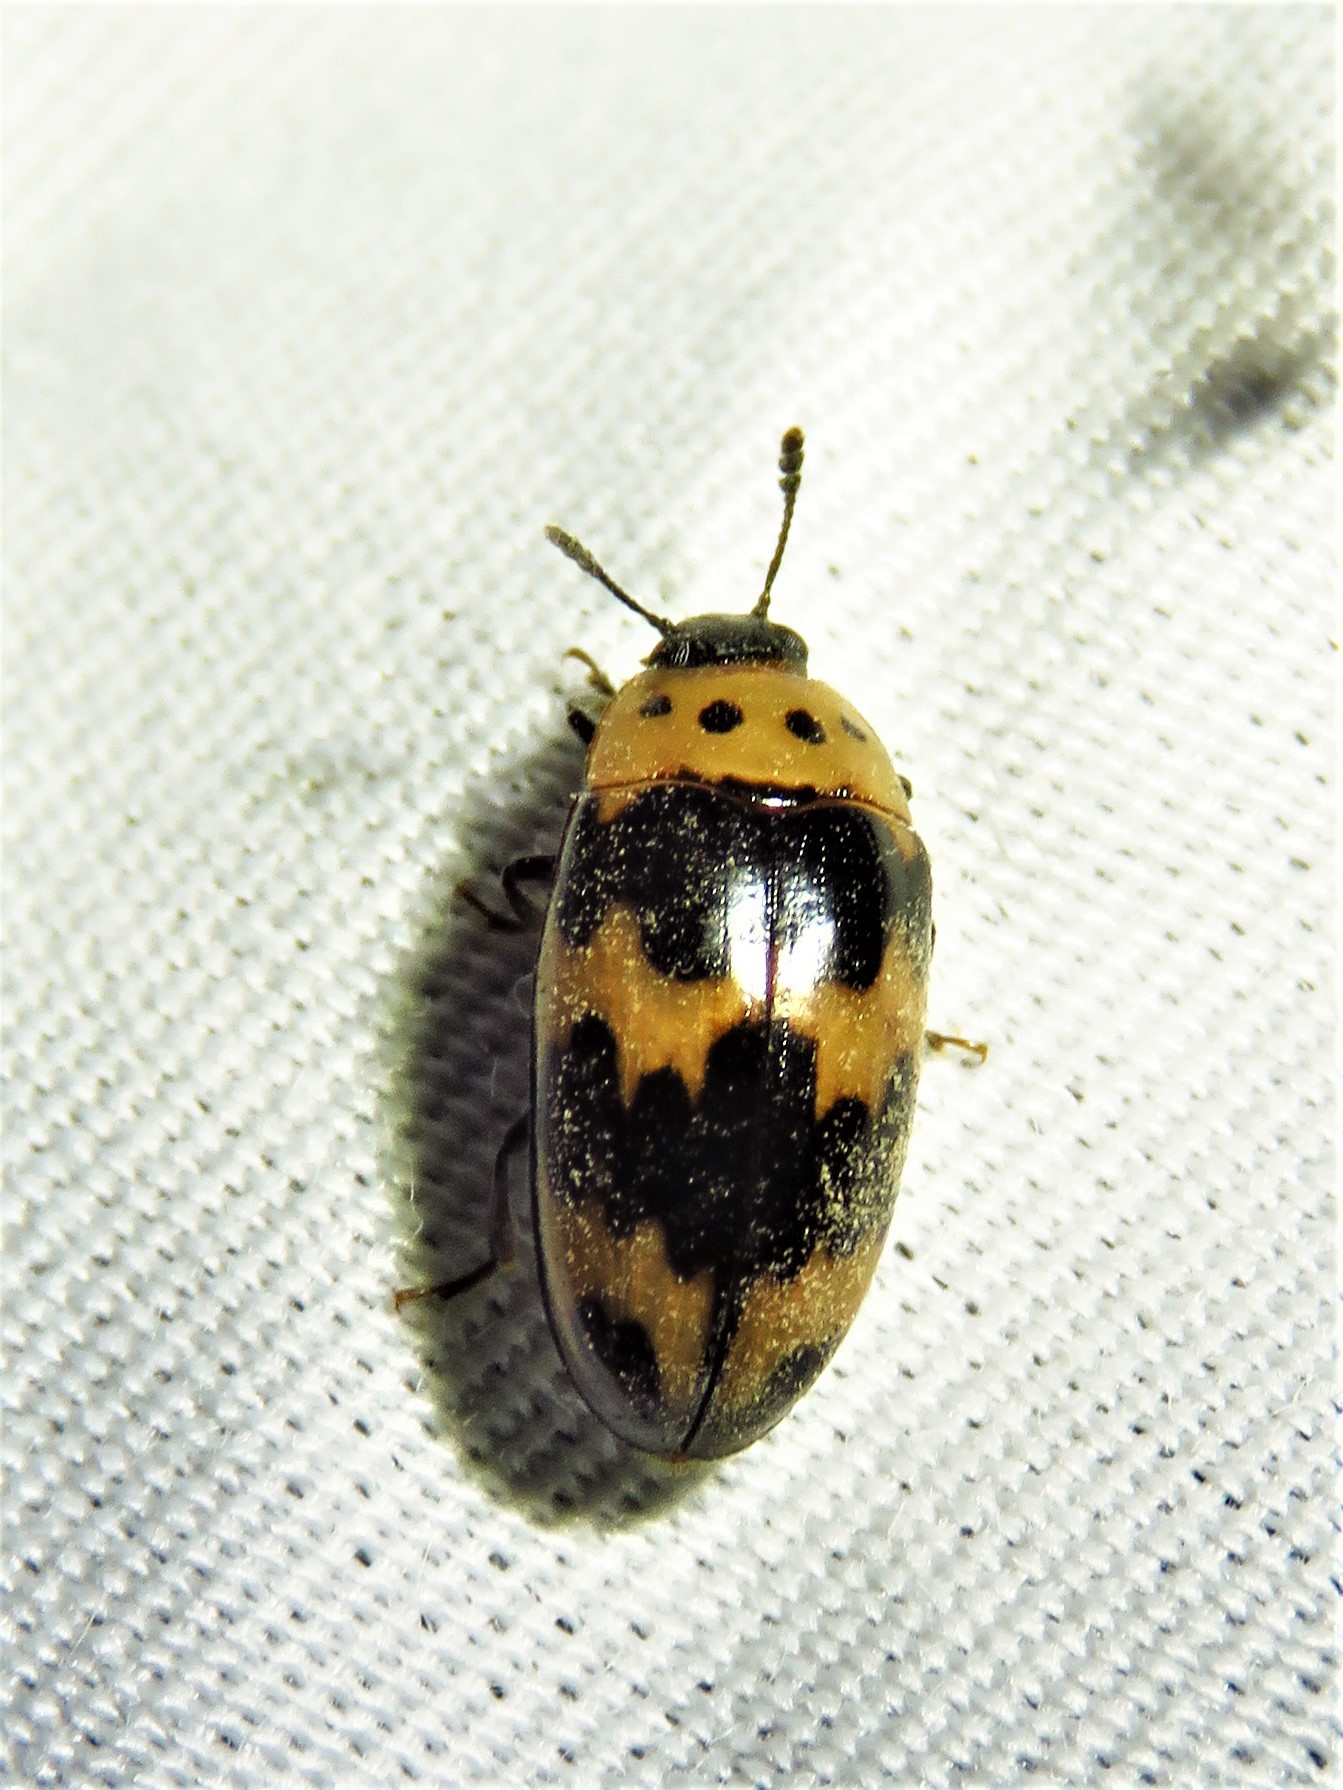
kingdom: Animalia
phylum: Arthropoda
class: Insecta
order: Coleoptera
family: Erotylidae
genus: Ischyrus
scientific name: Ischyrus quadripunctatus
